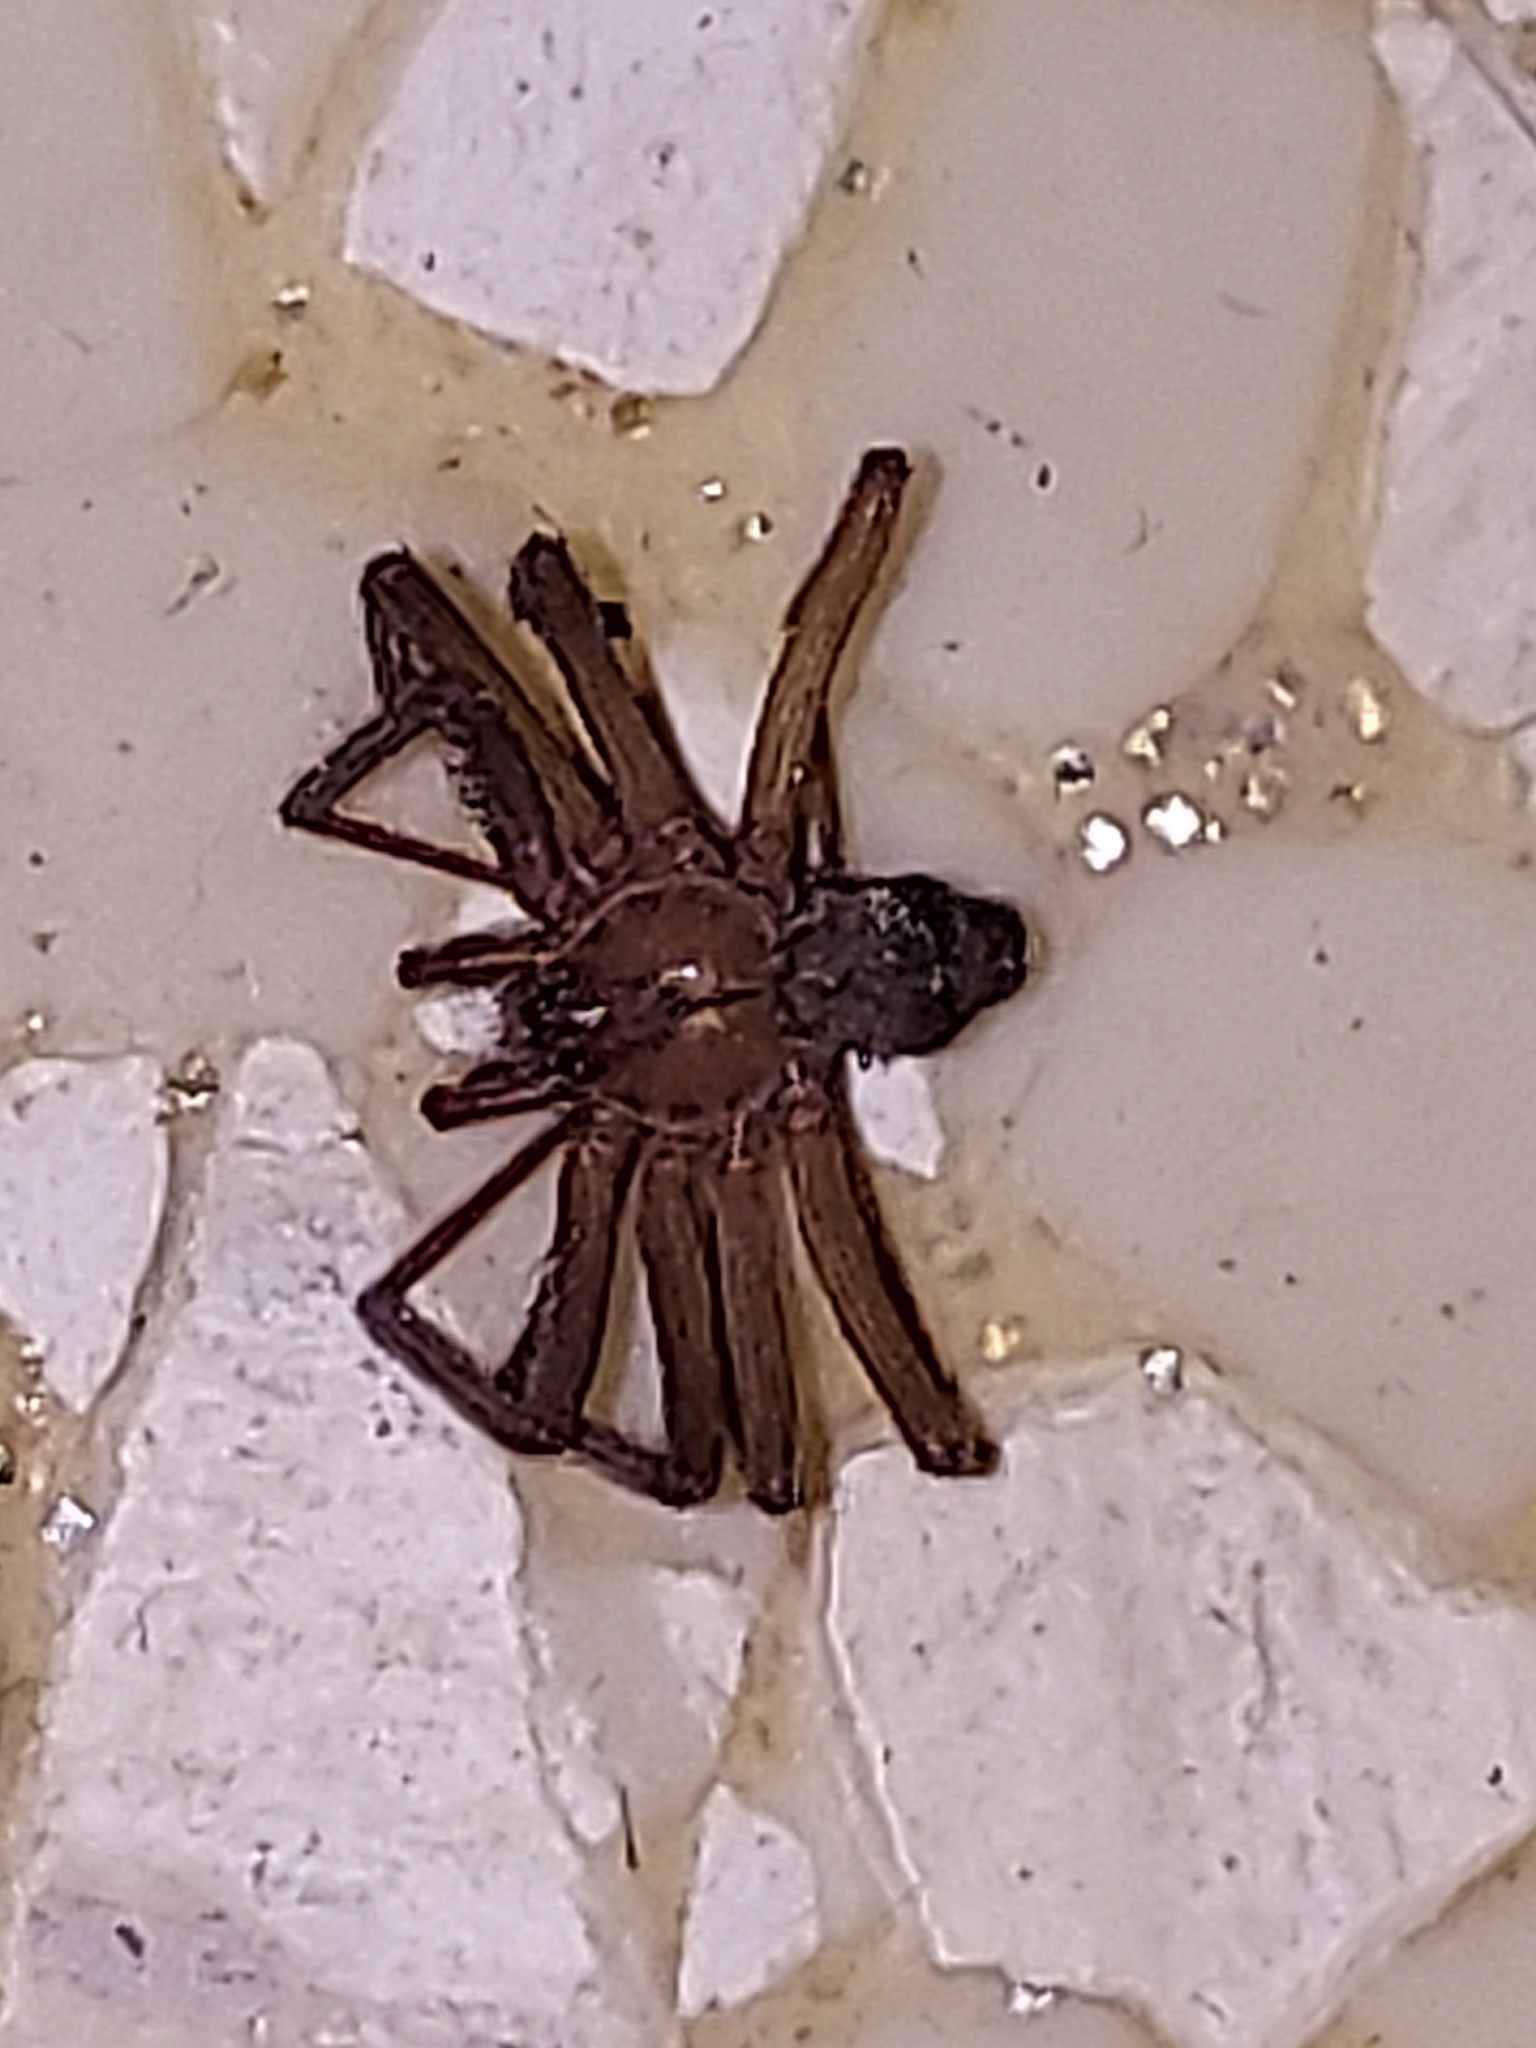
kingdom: Animalia
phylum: Arthropoda
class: Arachnida
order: Araneae
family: Sicariidae
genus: Loxosceles
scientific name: Loxosceles reclusa
